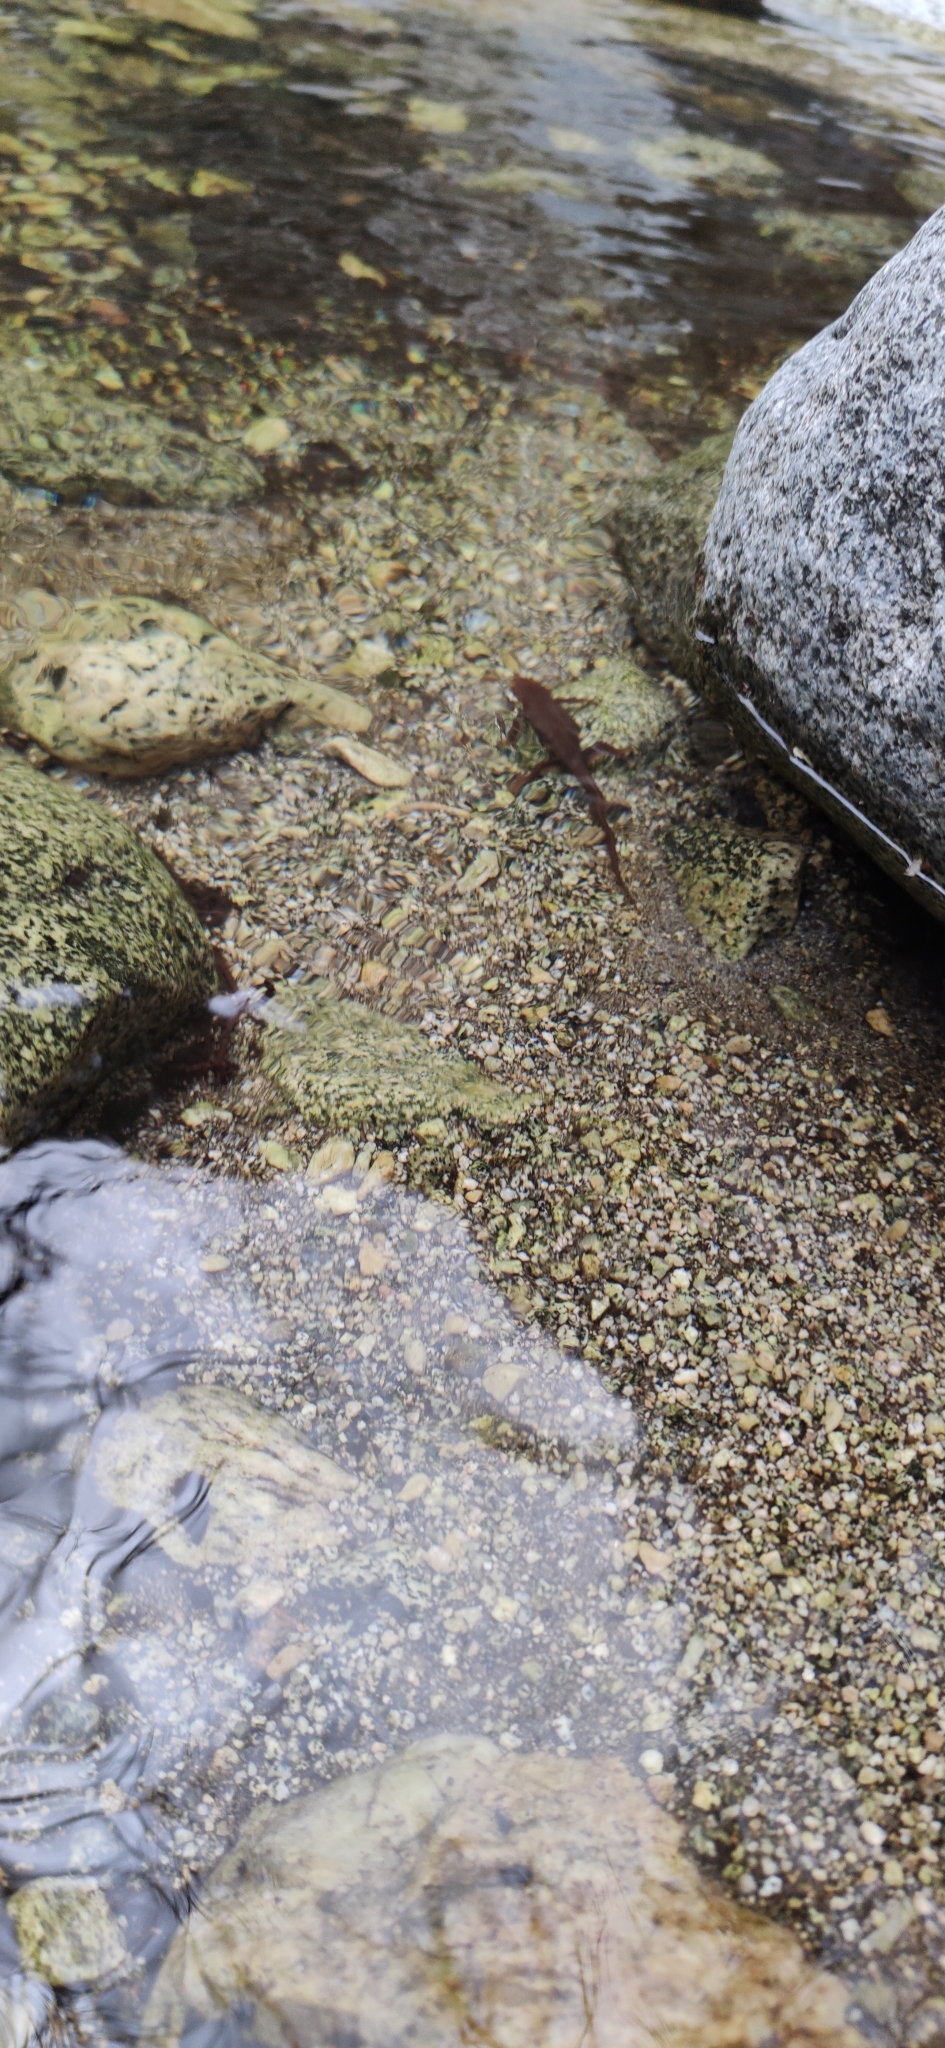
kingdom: Animalia
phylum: Chordata
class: Amphibia
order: Caudata
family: Salamandridae
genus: Taricha
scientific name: Taricha torosa
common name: California newt
